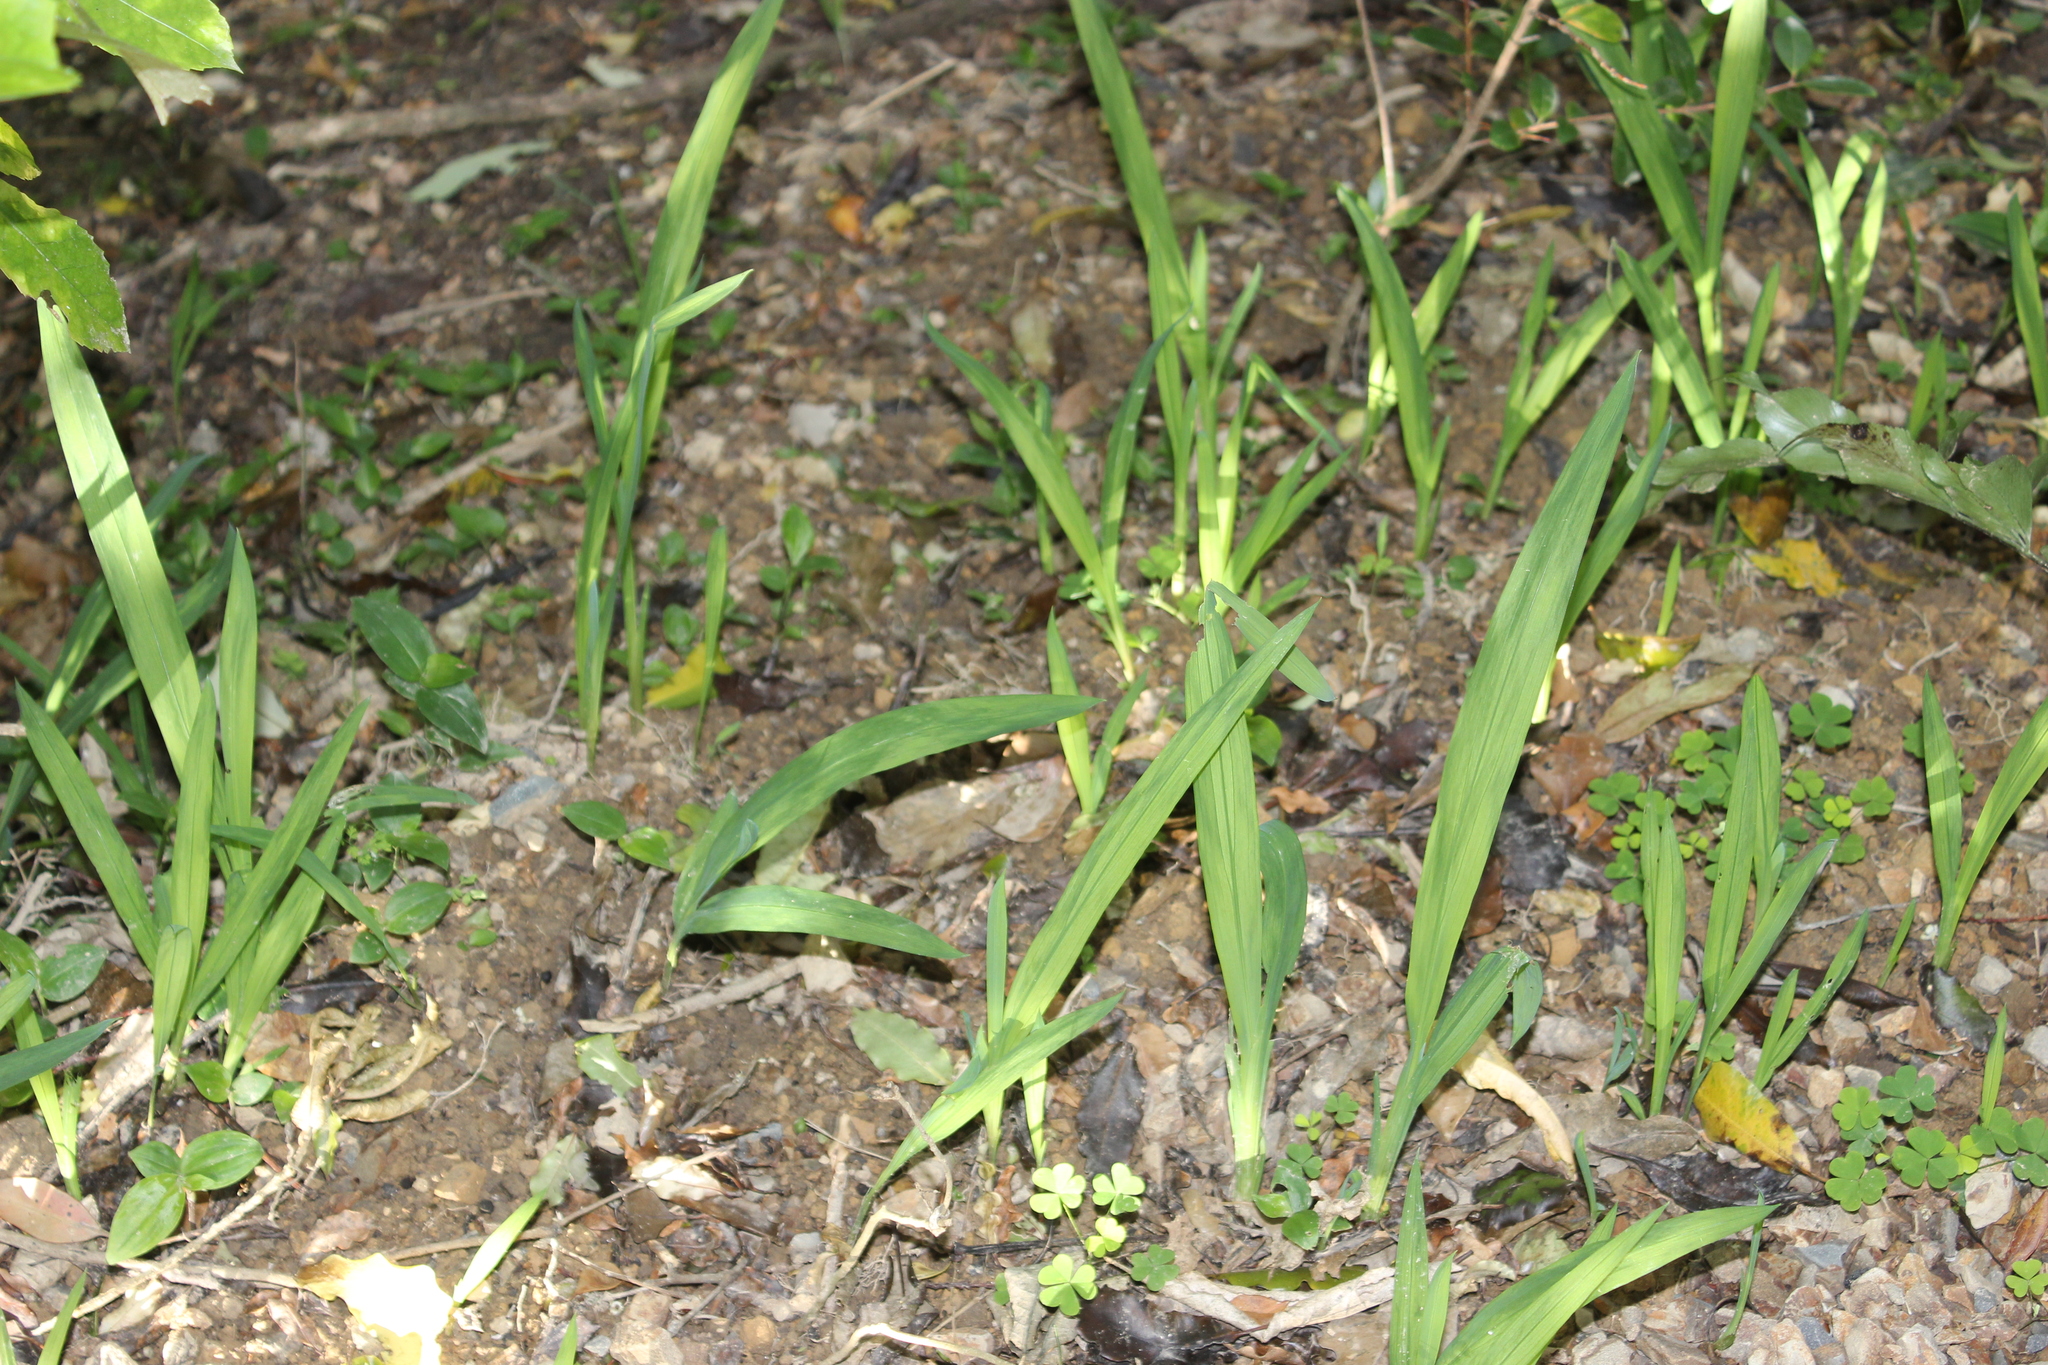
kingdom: Plantae
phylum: Tracheophyta
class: Liliopsida
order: Asparagales
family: Iridaceae
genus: Crocosmia
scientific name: Crocosmia crocosmiiflora
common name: Montbretia
